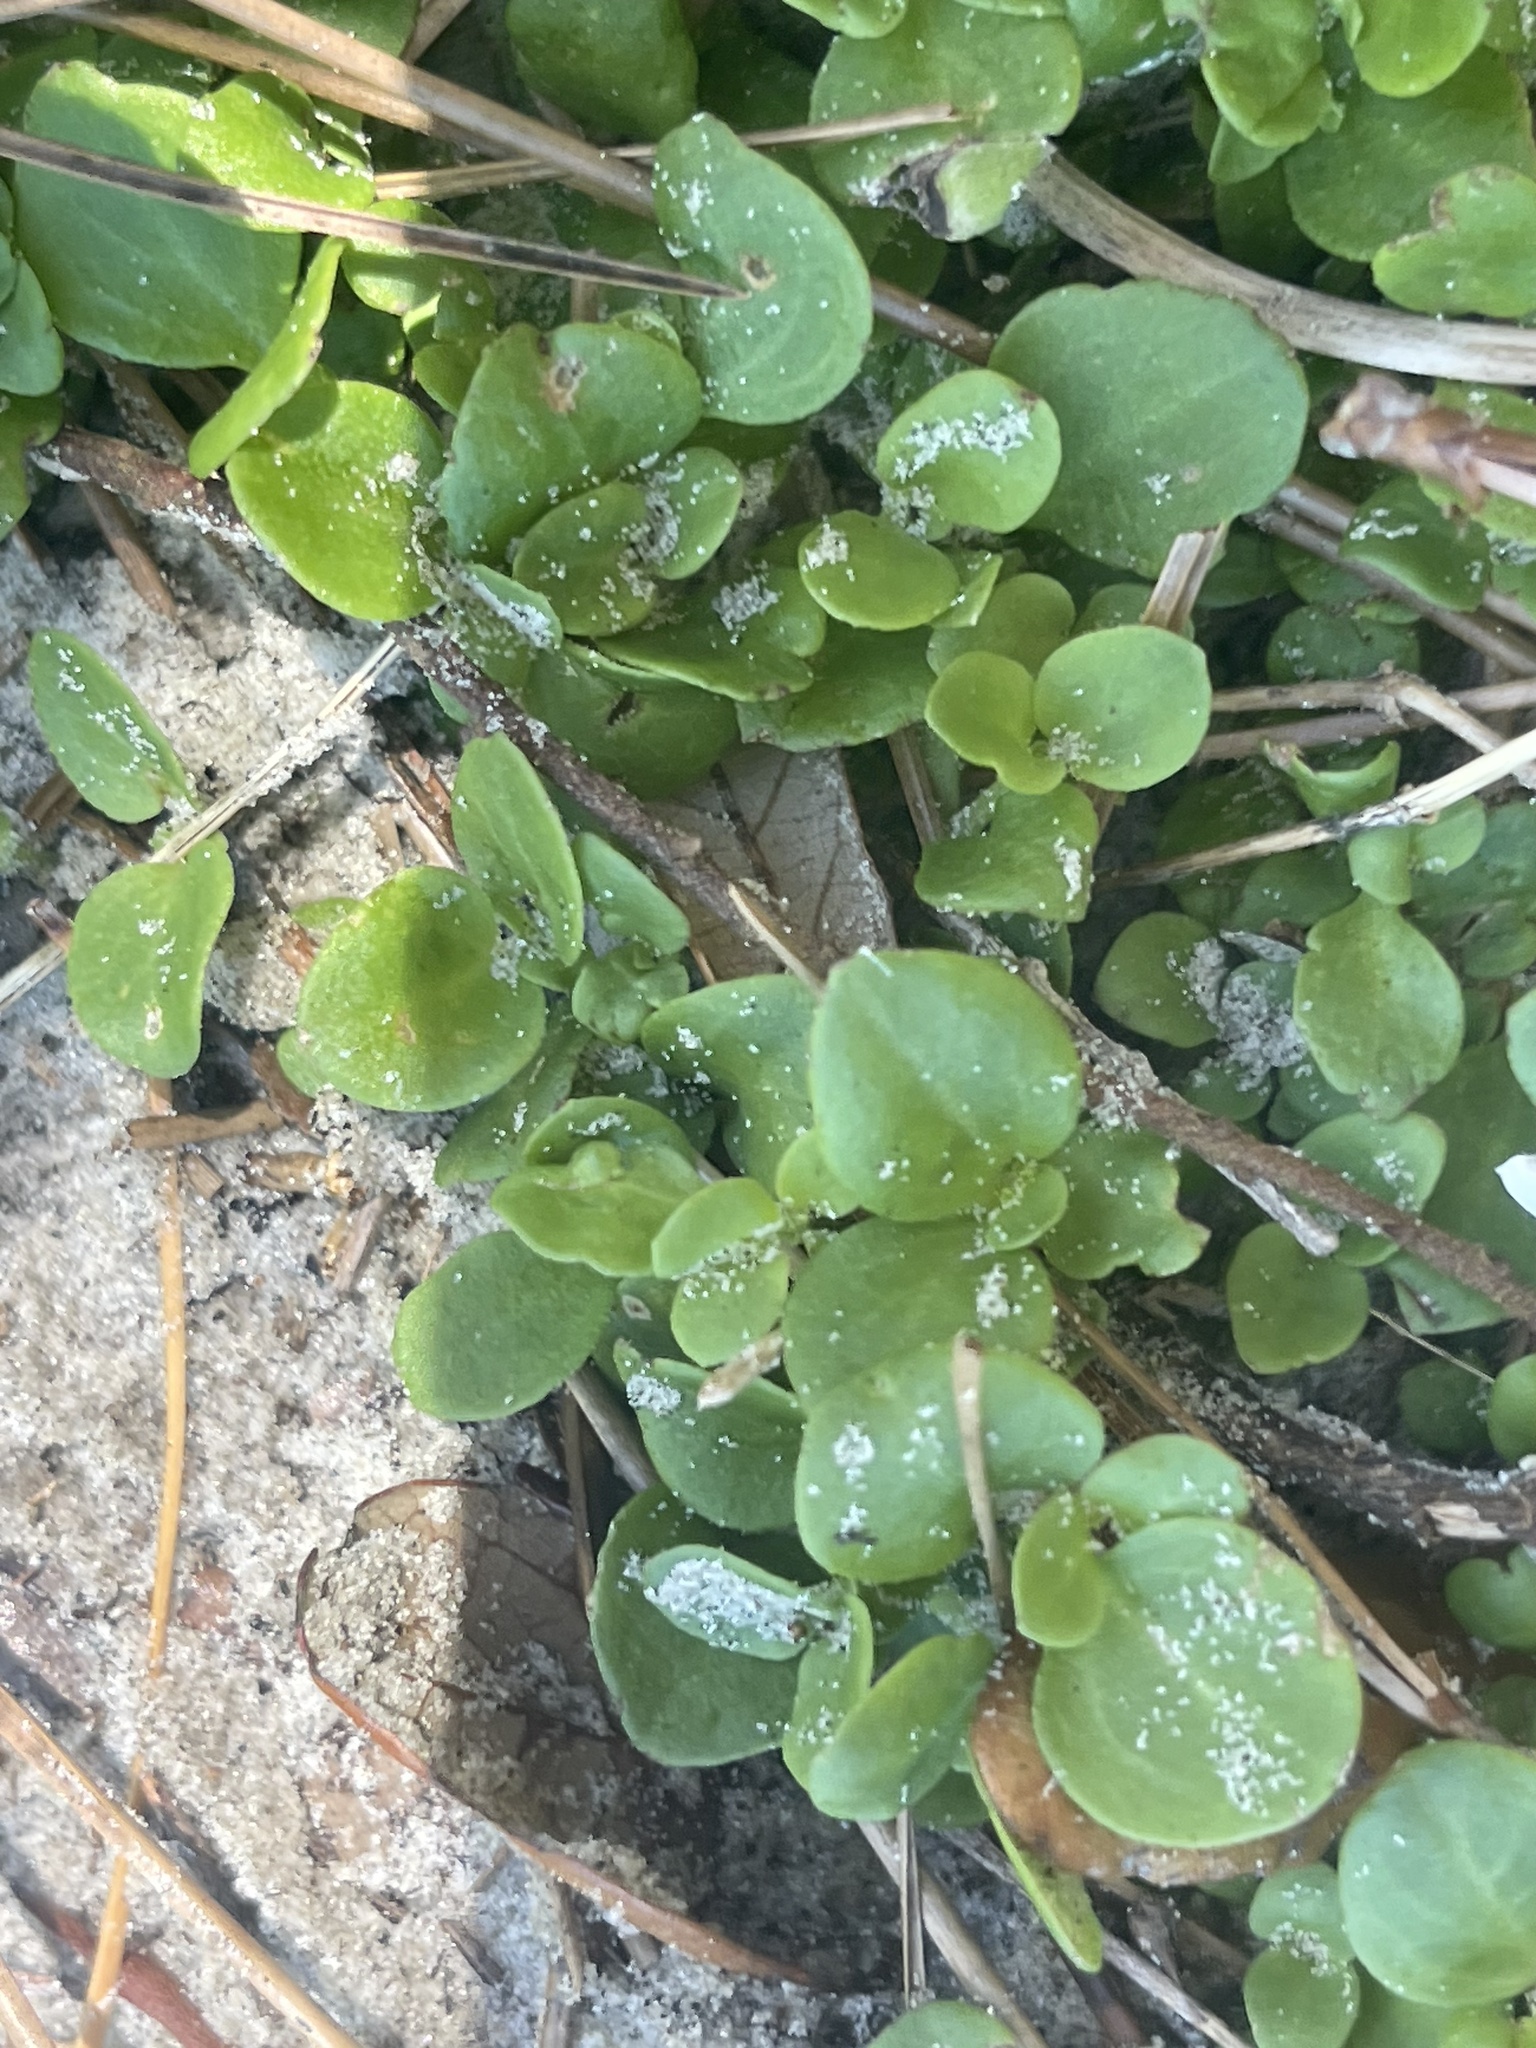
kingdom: Plantae
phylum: Tracheophyta
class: Magnoliopsida
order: Gentianales
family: Rubiaceae
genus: Houstonia
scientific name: Houstonia procumbens
